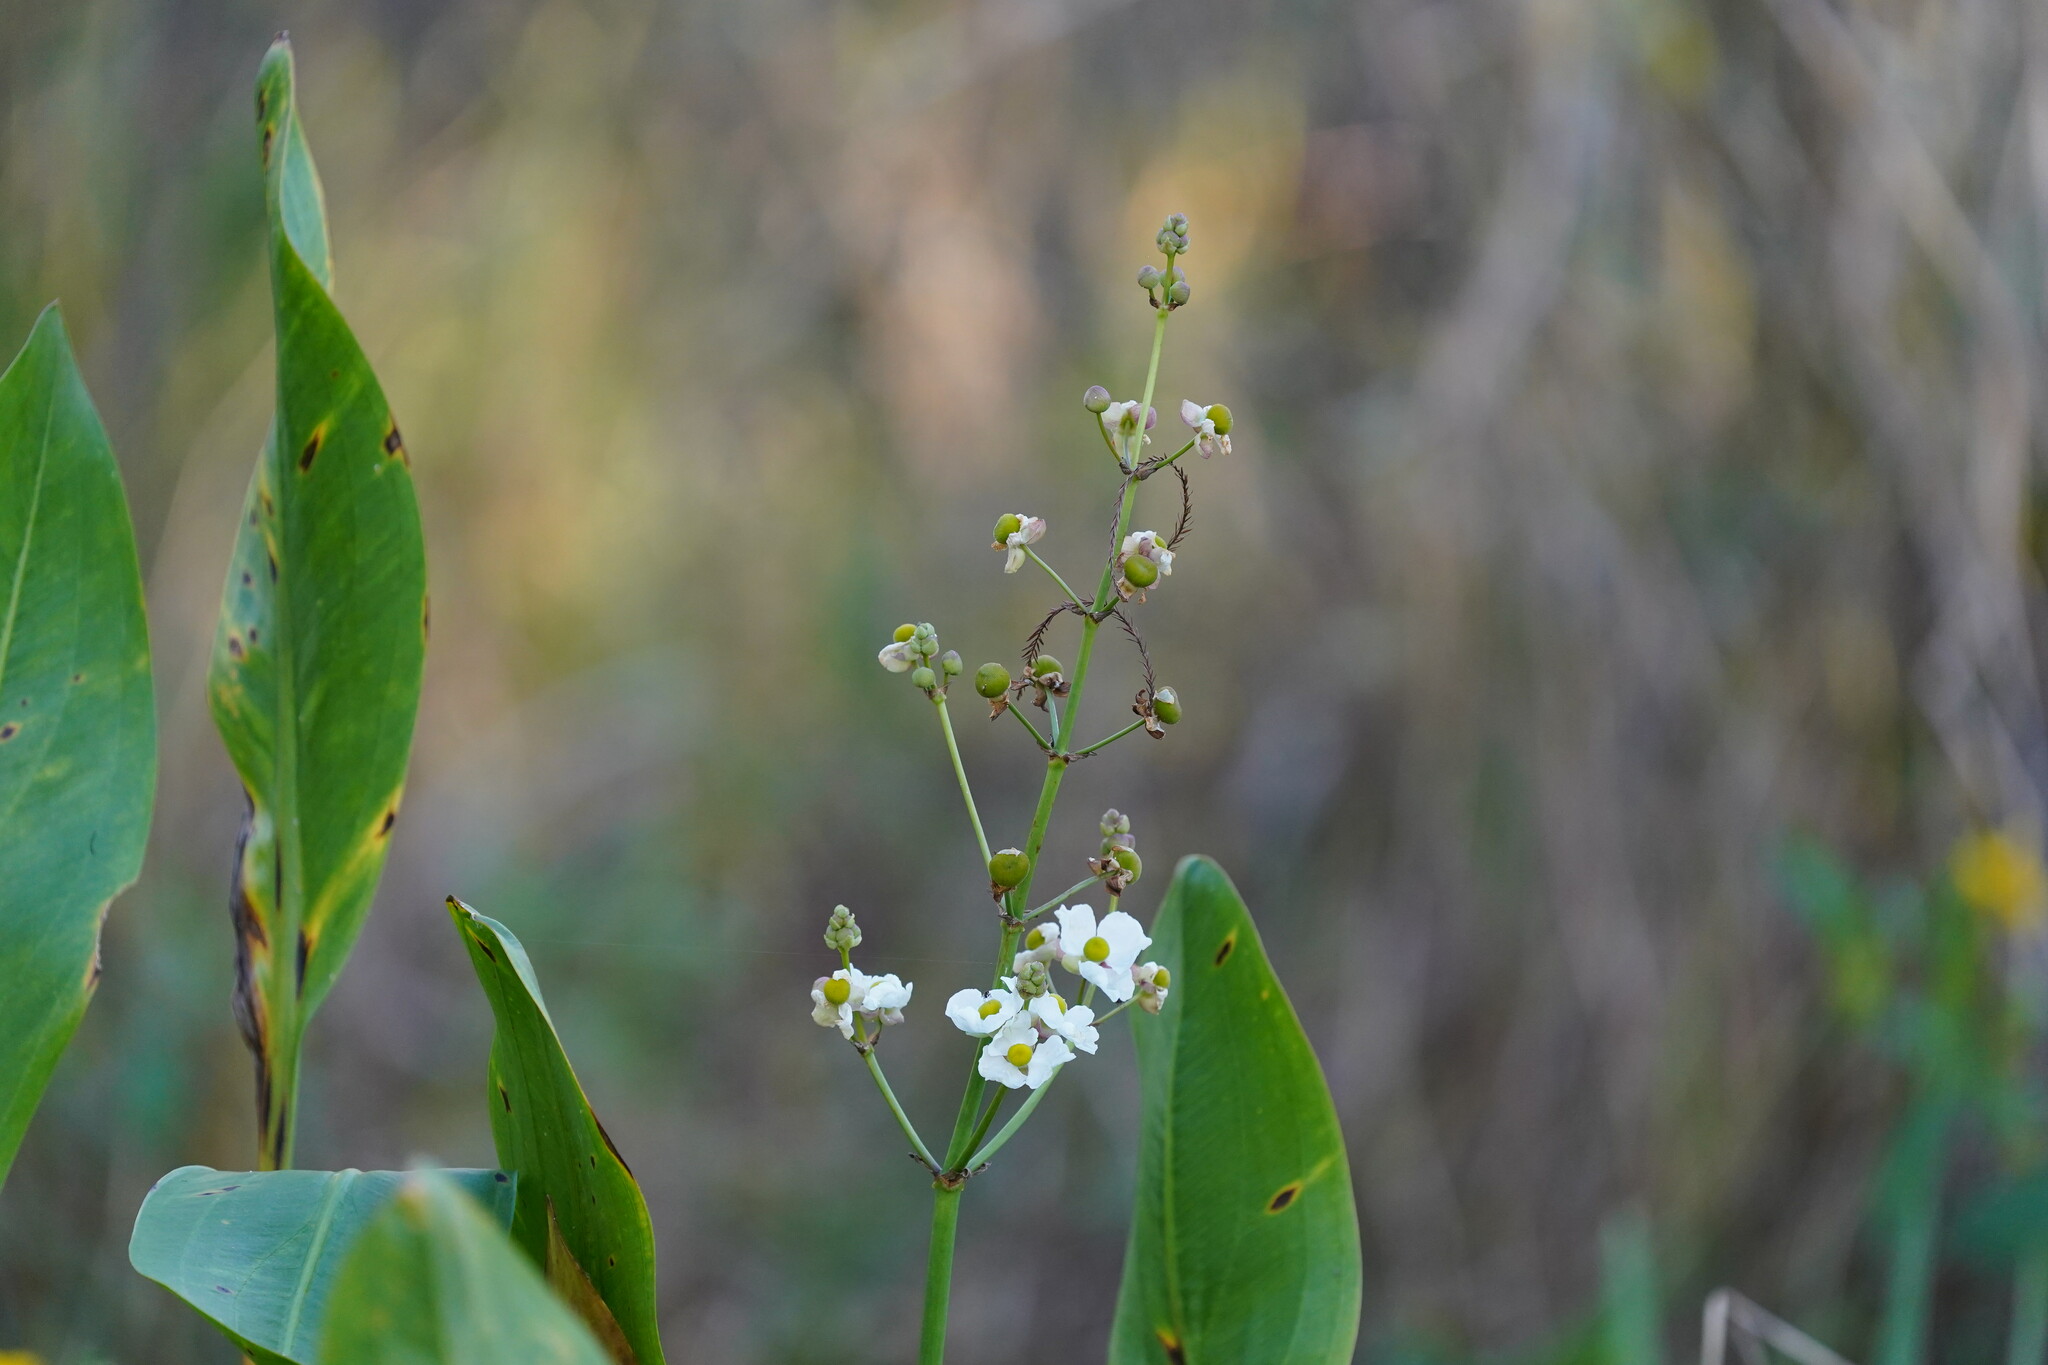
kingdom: Plantae
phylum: Tracheophyta
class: Liliopsida
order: Alismatales
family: Alismataceae
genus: Sagittaria
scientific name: Sagittaria lancifolia
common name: Lance-leaf arrowhead
